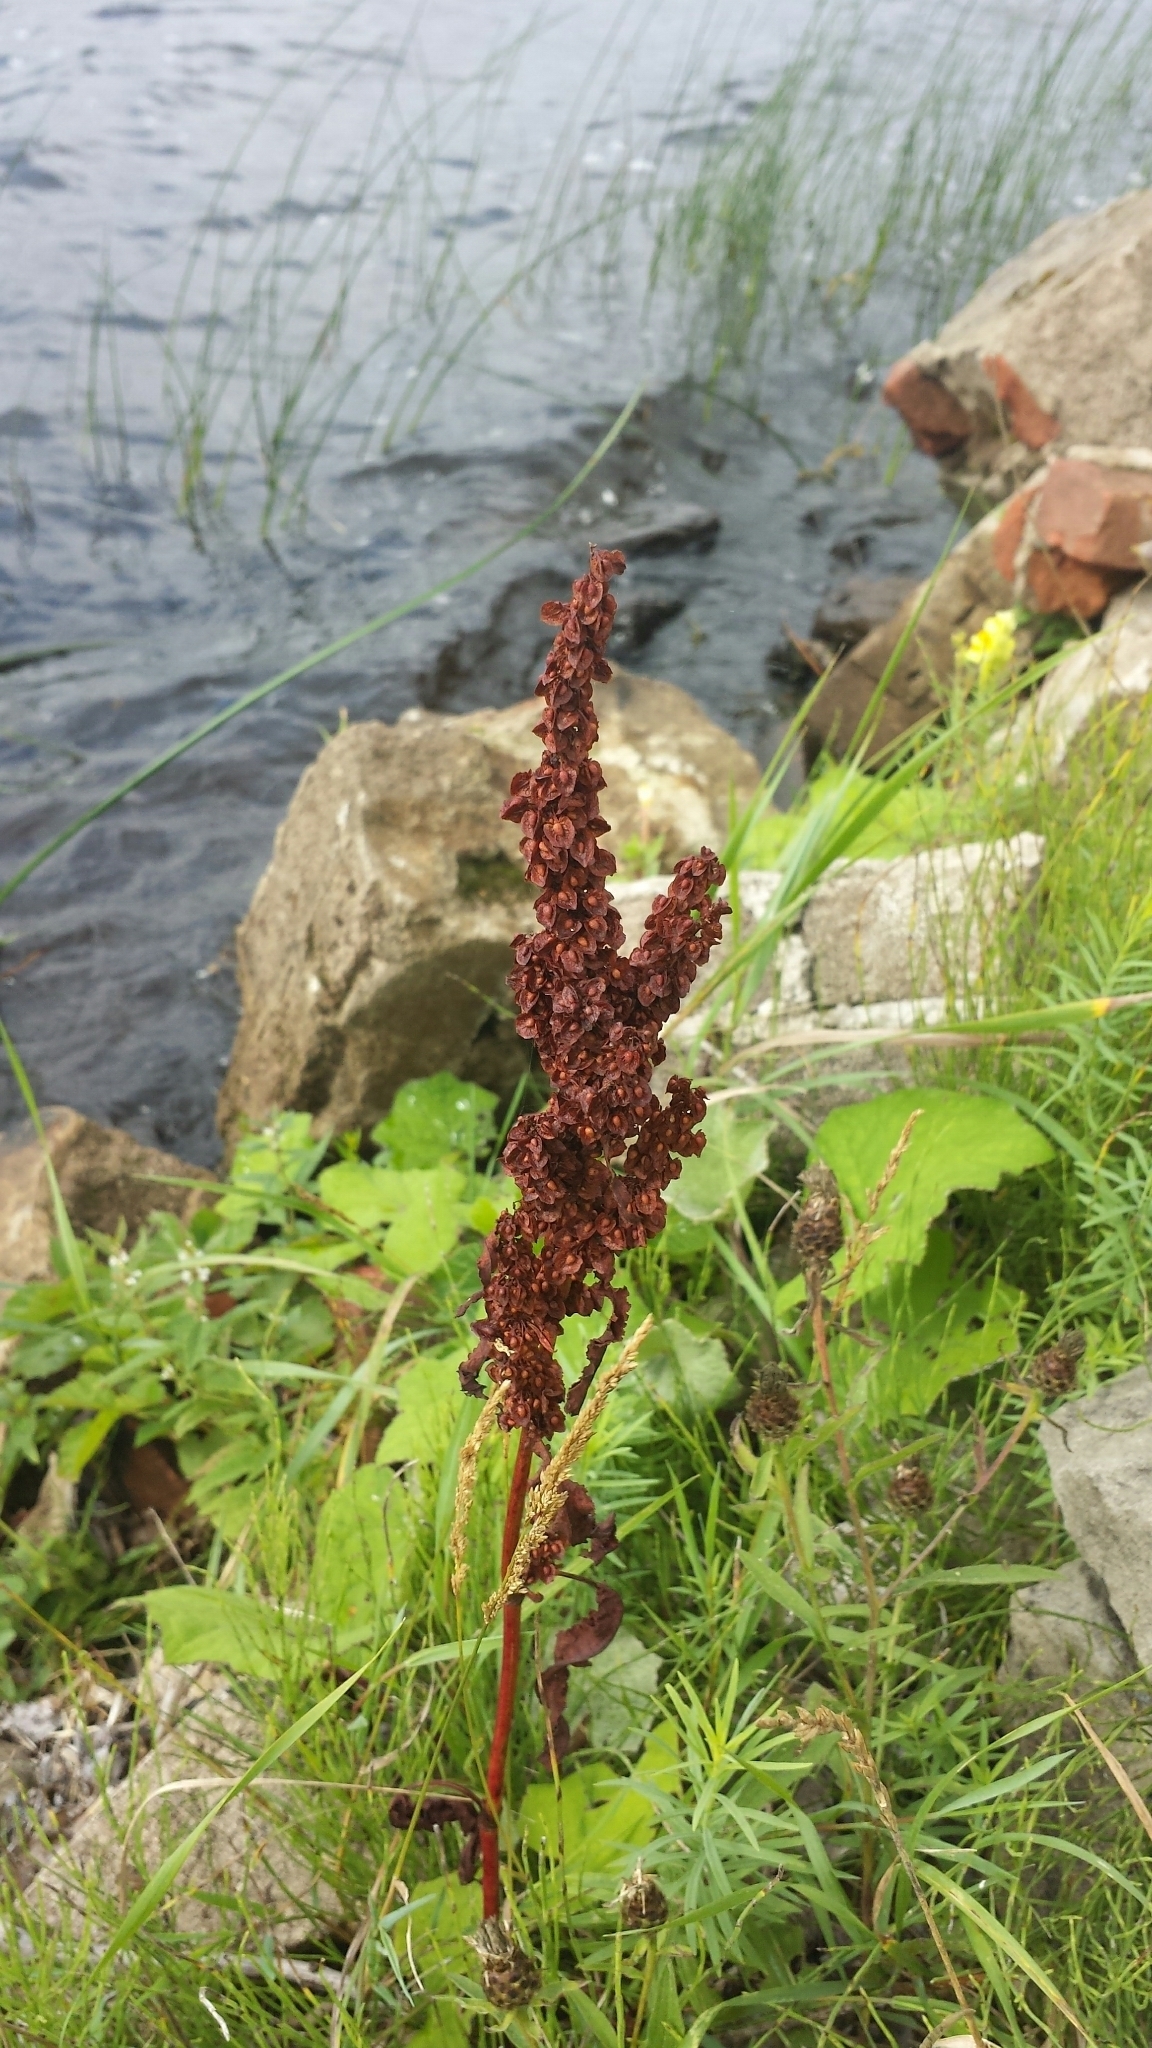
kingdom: Plantae
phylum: Tracheophyta
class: Magnoliopsida
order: Caryophyllales
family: Polygonaceae
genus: Rumex
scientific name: Rumex crispus
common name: Curled dock
